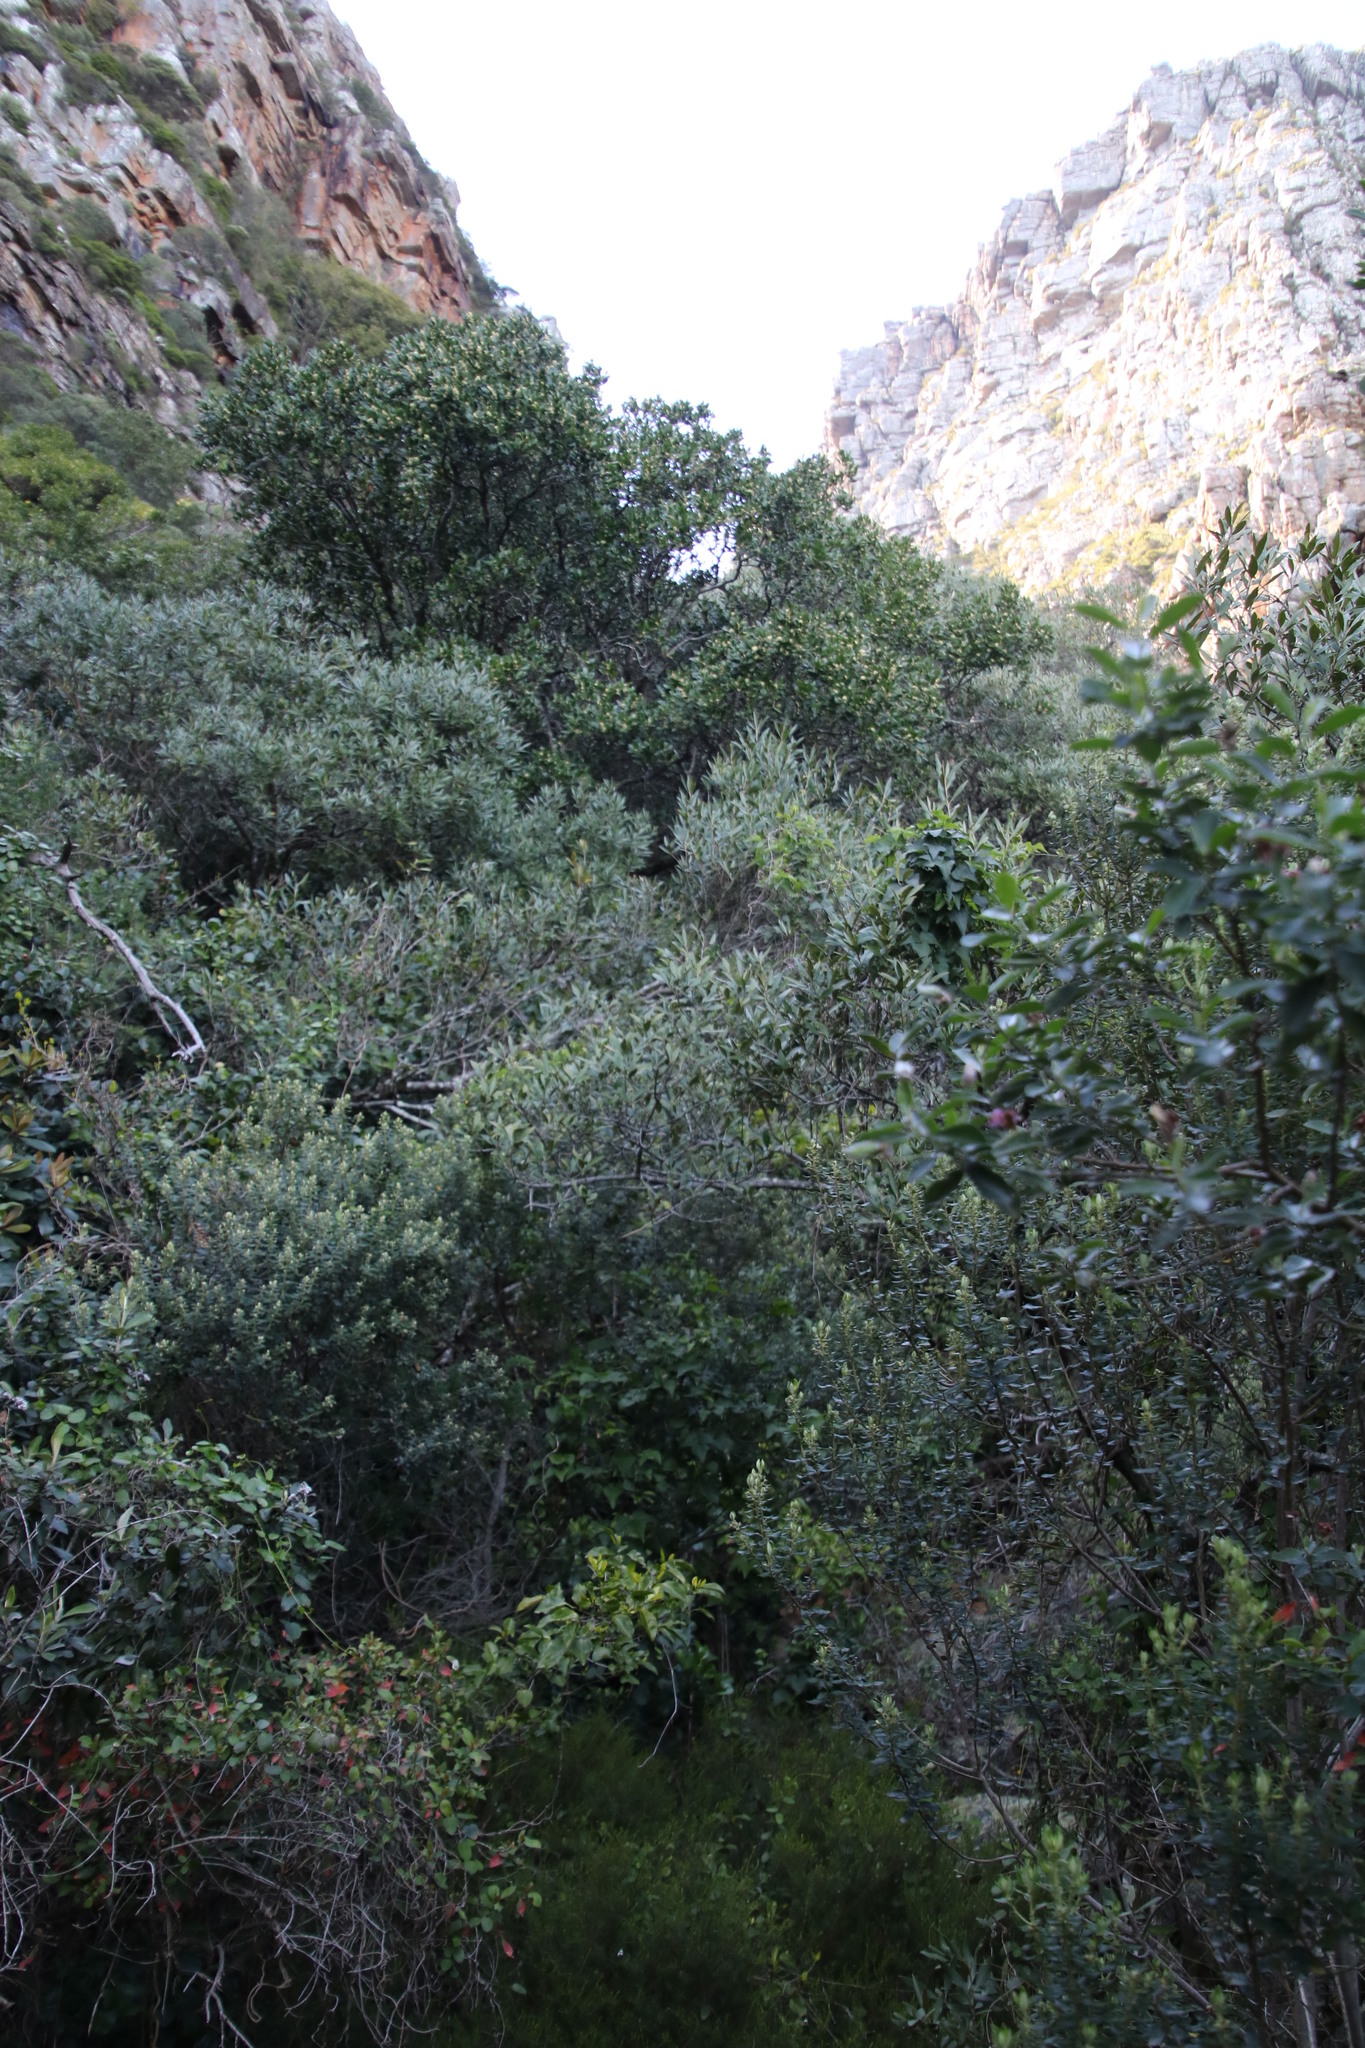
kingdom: Plantae
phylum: Tracheophyta
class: Magnoliopsida
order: Myrtales
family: Penaeaceae
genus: Olinia
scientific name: Olinia ventosa
